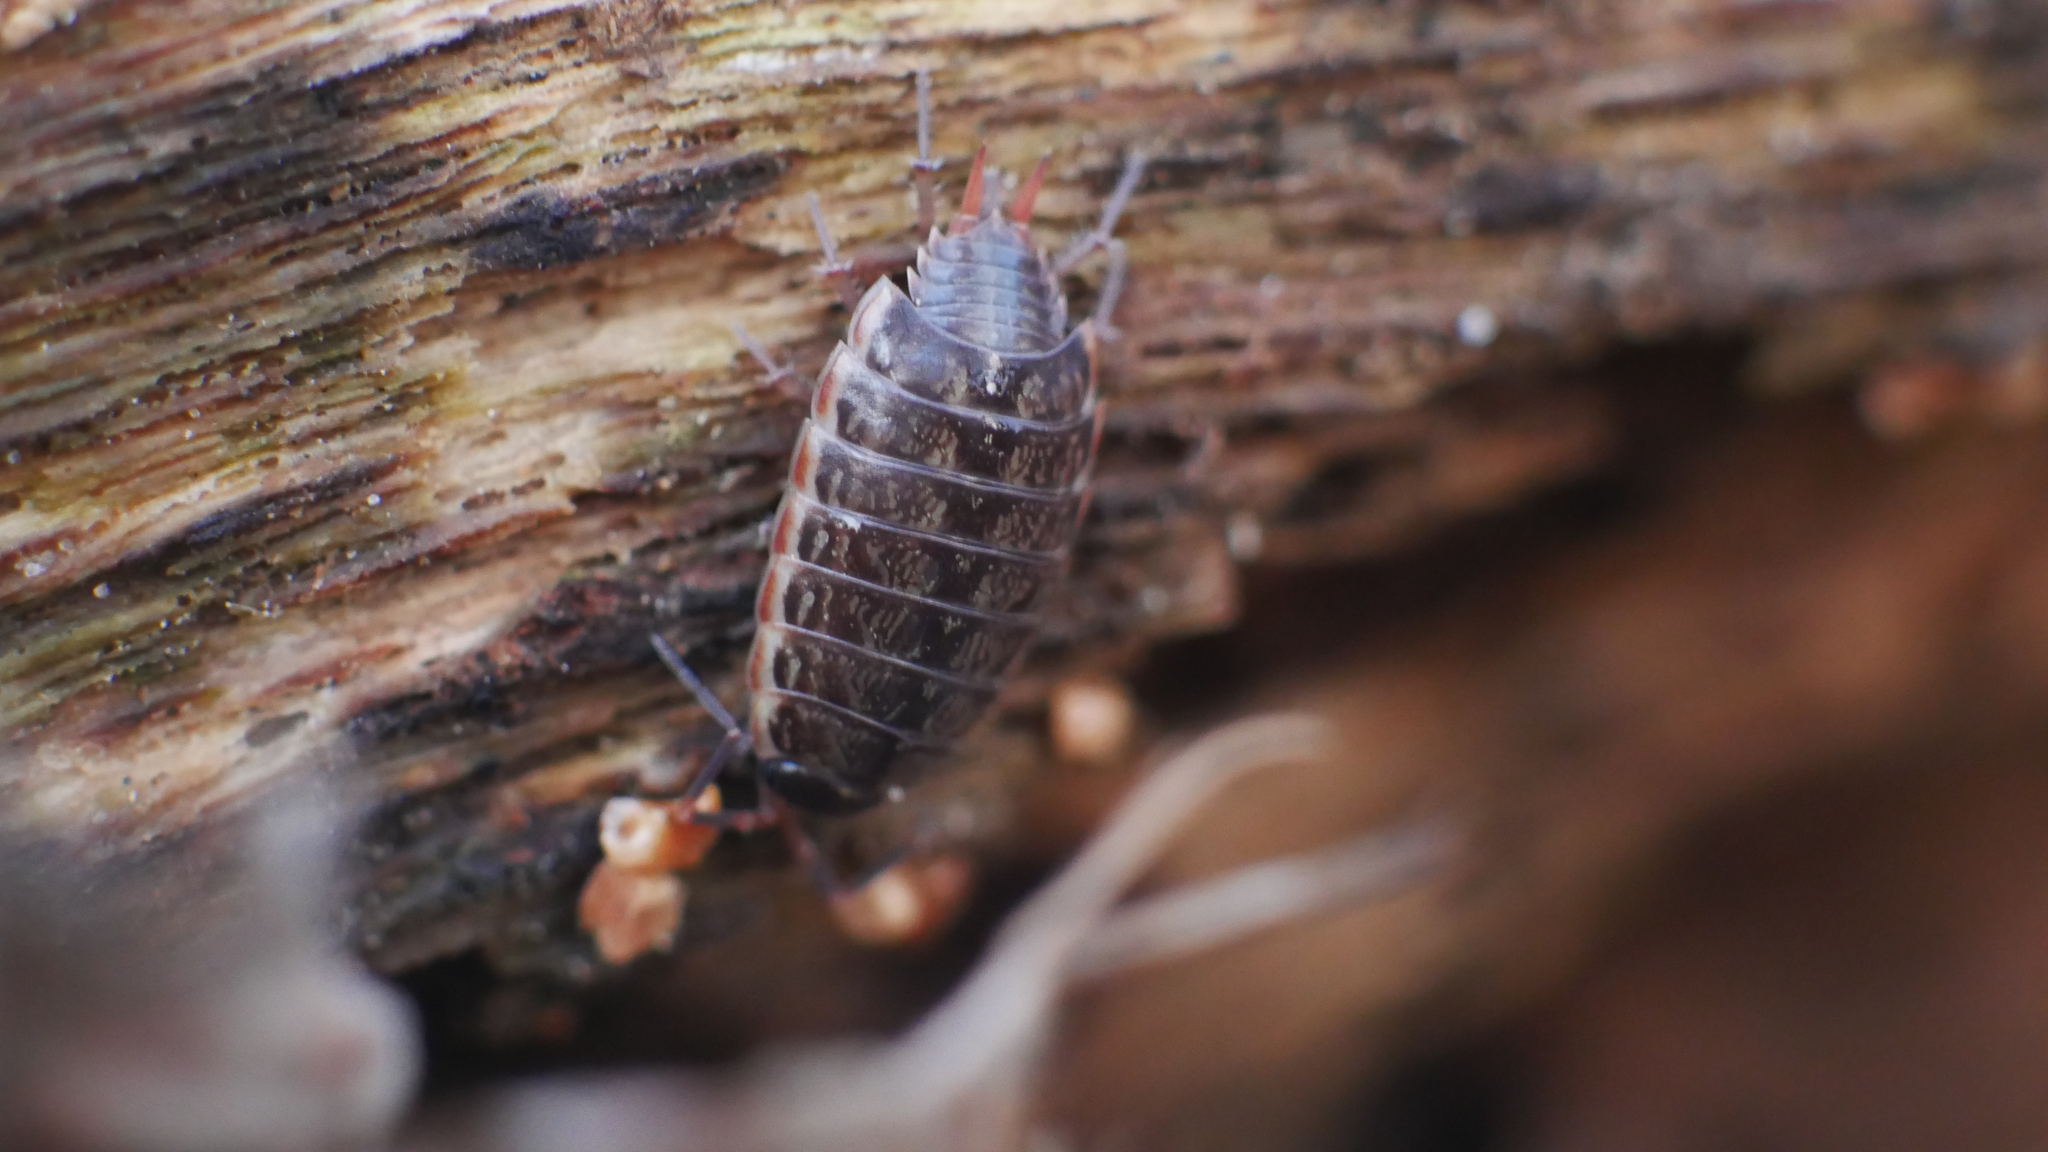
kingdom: Animalia
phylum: Arthropoda
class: Malacostraca
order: Isopoda
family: Philosciidae
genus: Philoscia
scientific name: Philoscia muscorum
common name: Common striped woodlouse
